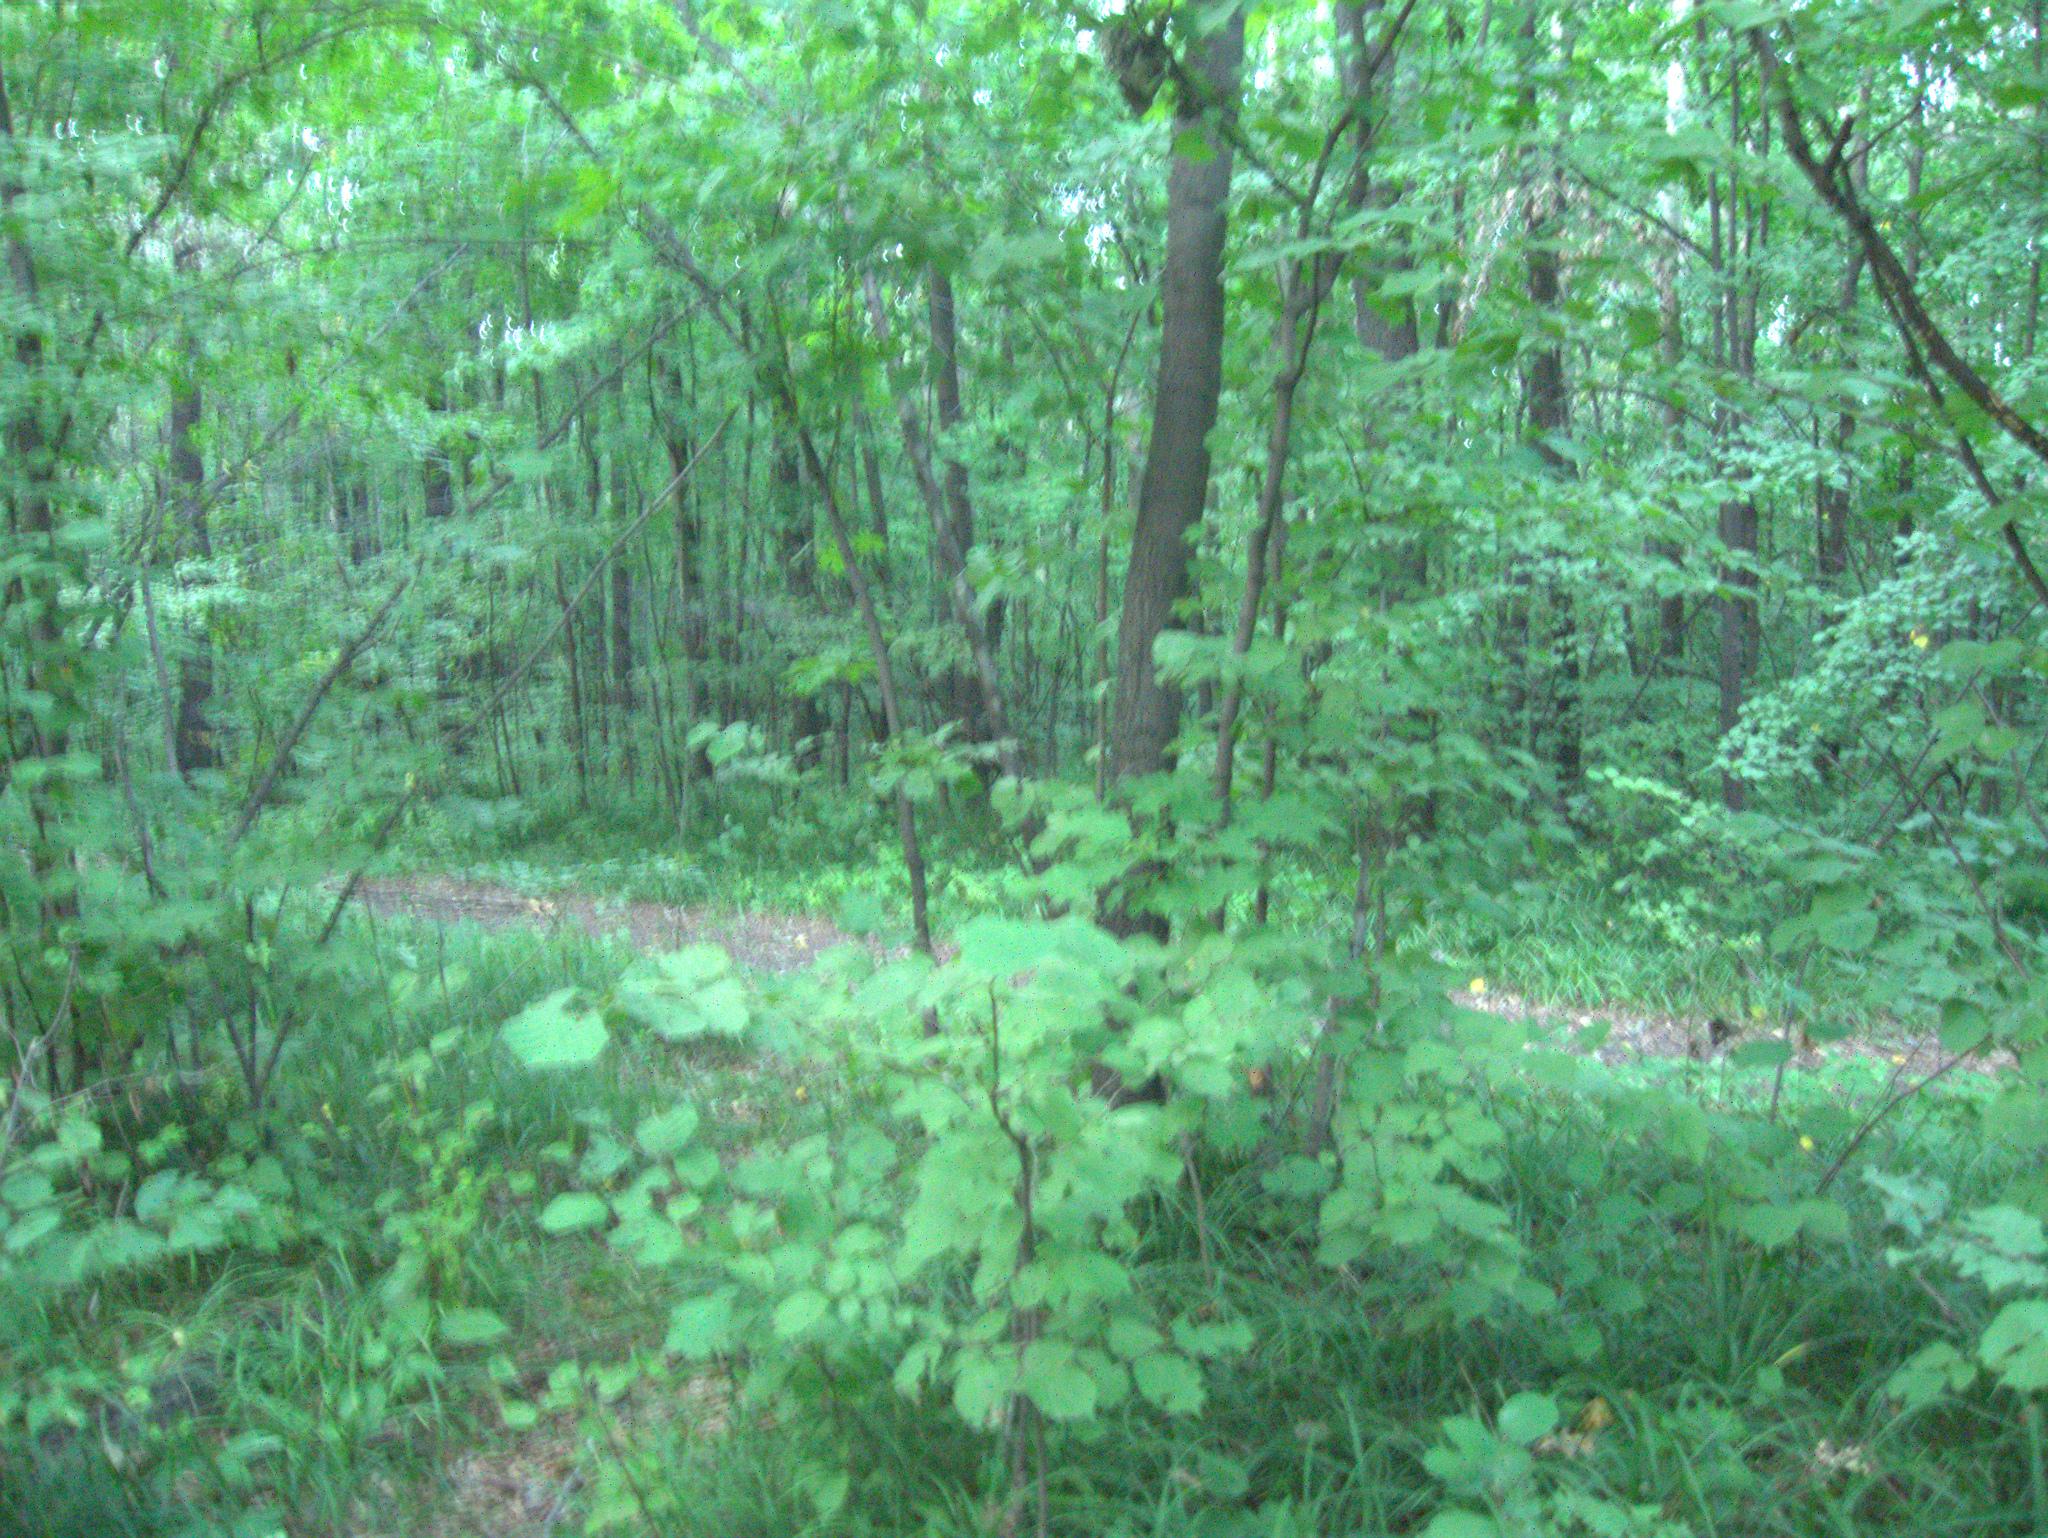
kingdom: Plantae
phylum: Tracheophyta
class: Magnoliopsida
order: Fagales
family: Betulaceae
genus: Corylus
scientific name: Corylus avellana
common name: European hazel
